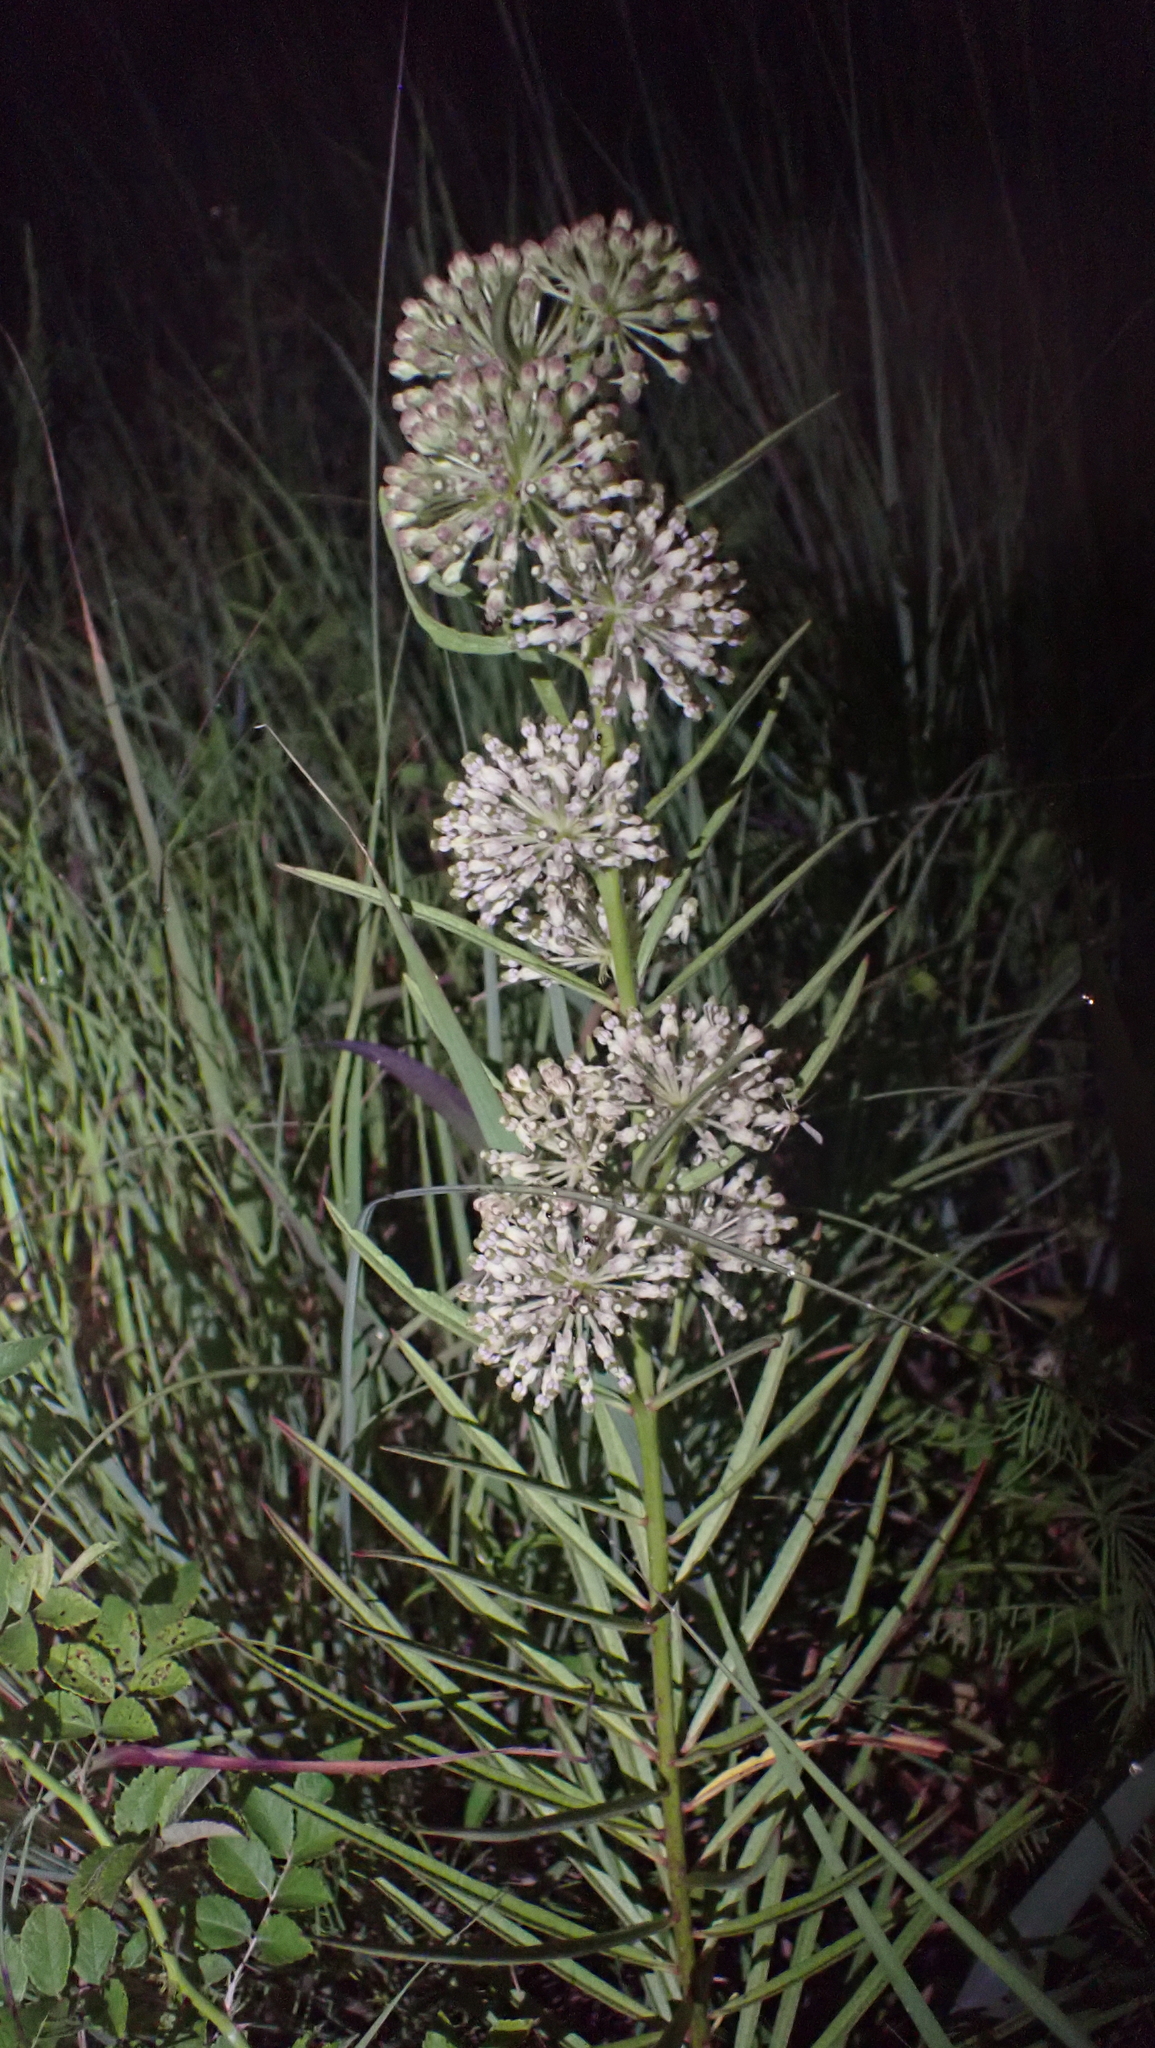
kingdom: Plantae
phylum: Tracheophyta
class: Magnoliopsida
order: Gentianales
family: Apocynaceae
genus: Asclepias
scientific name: Asclepias hirtella
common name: Prairie milkweed
